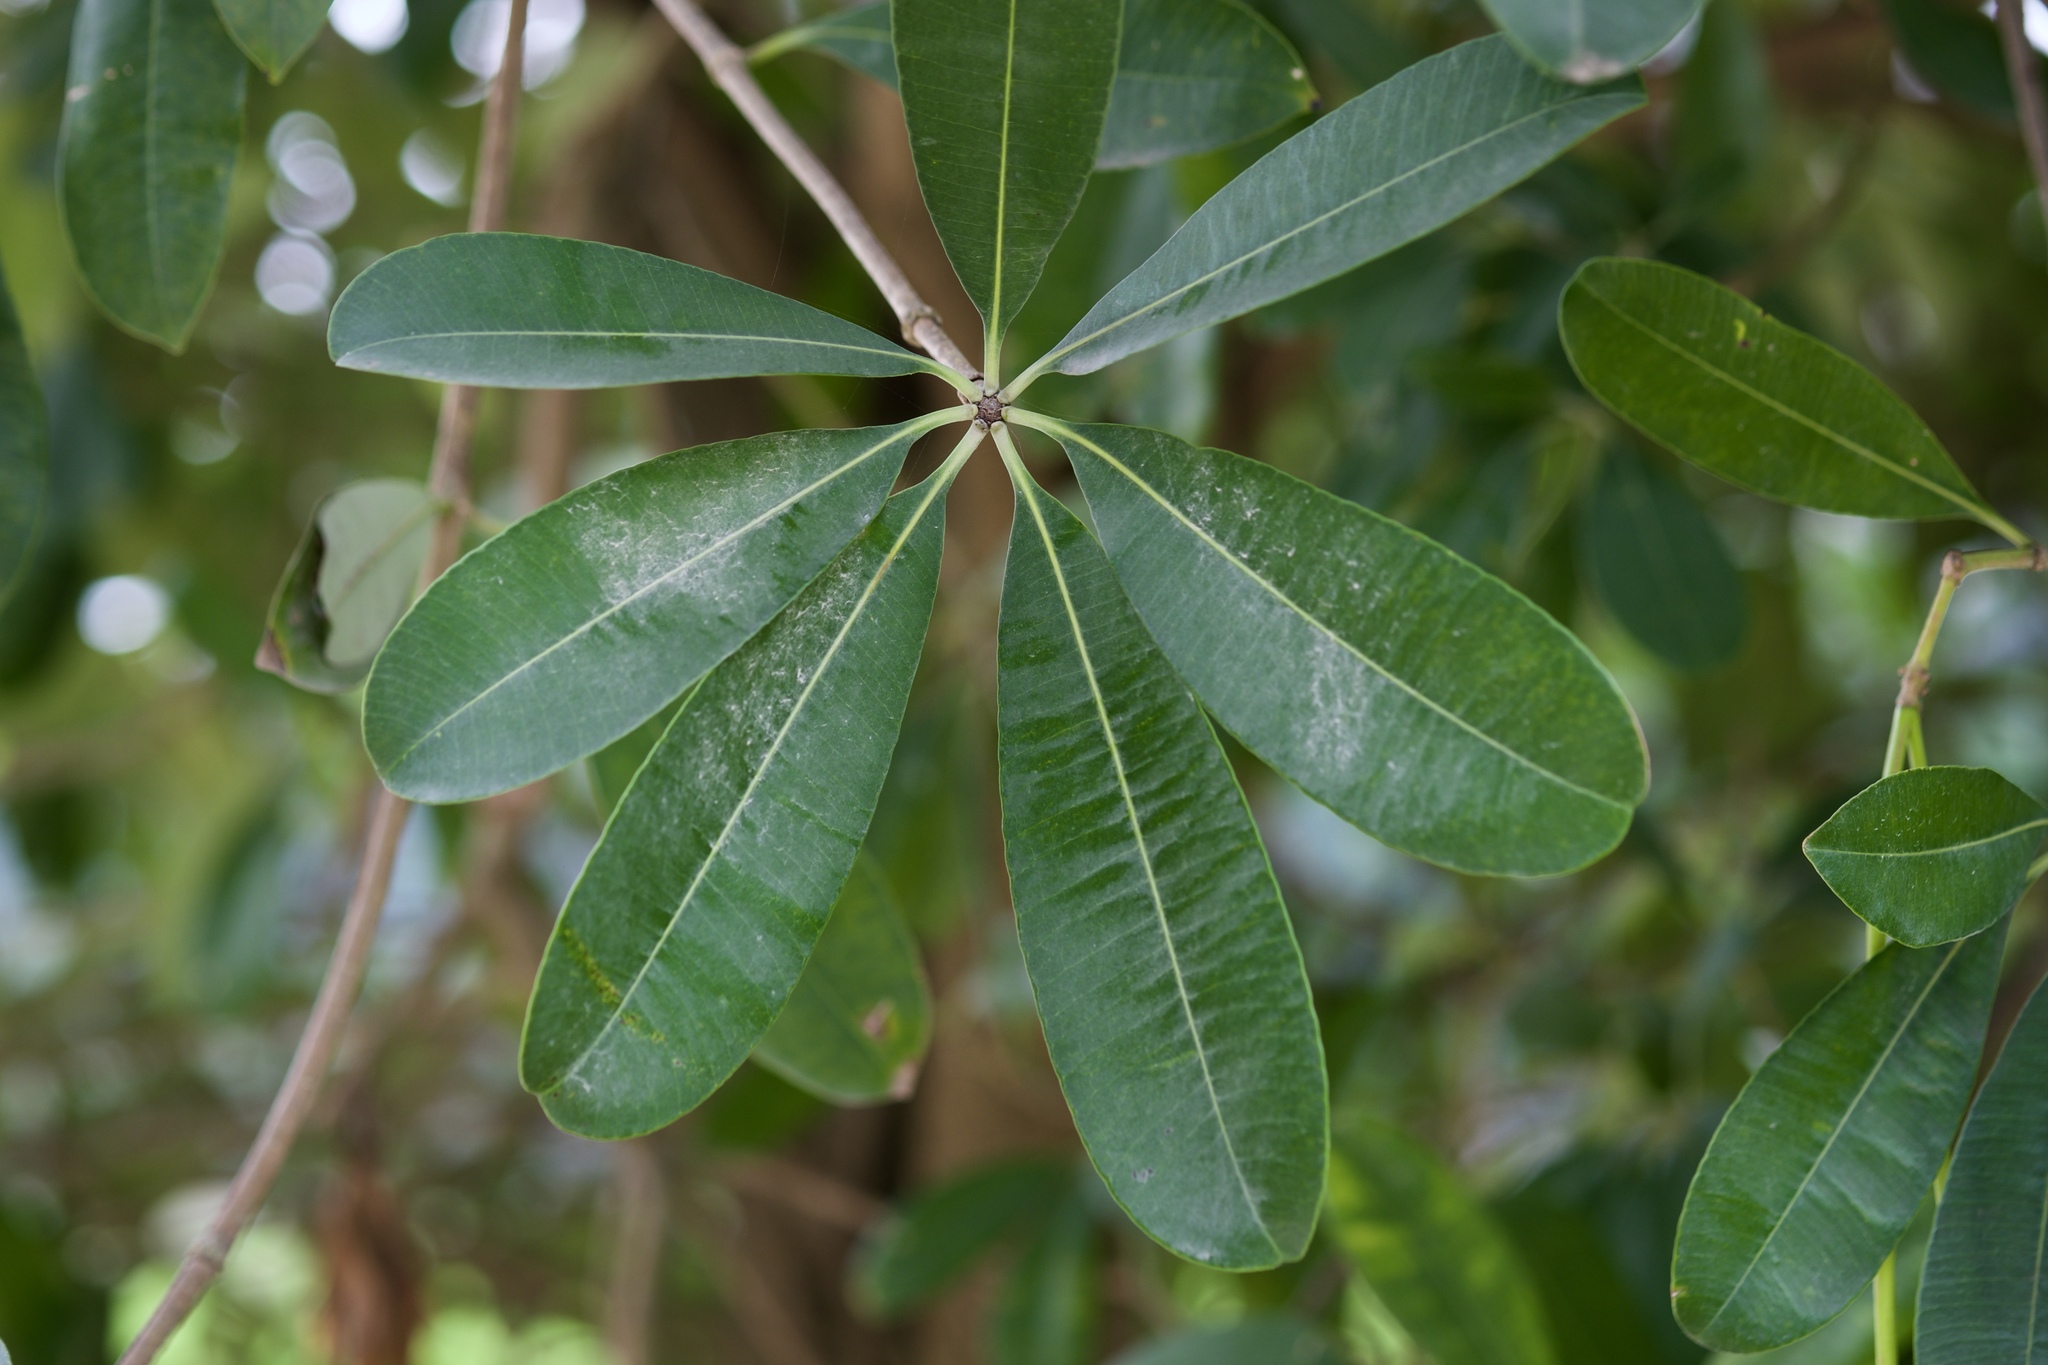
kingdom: Plantae
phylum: Tracheophyta
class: Magnoliopsida
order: Gentianales
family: Apocynaceae
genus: Alstonia
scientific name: Alstonia scholaris
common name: White cheesewood
